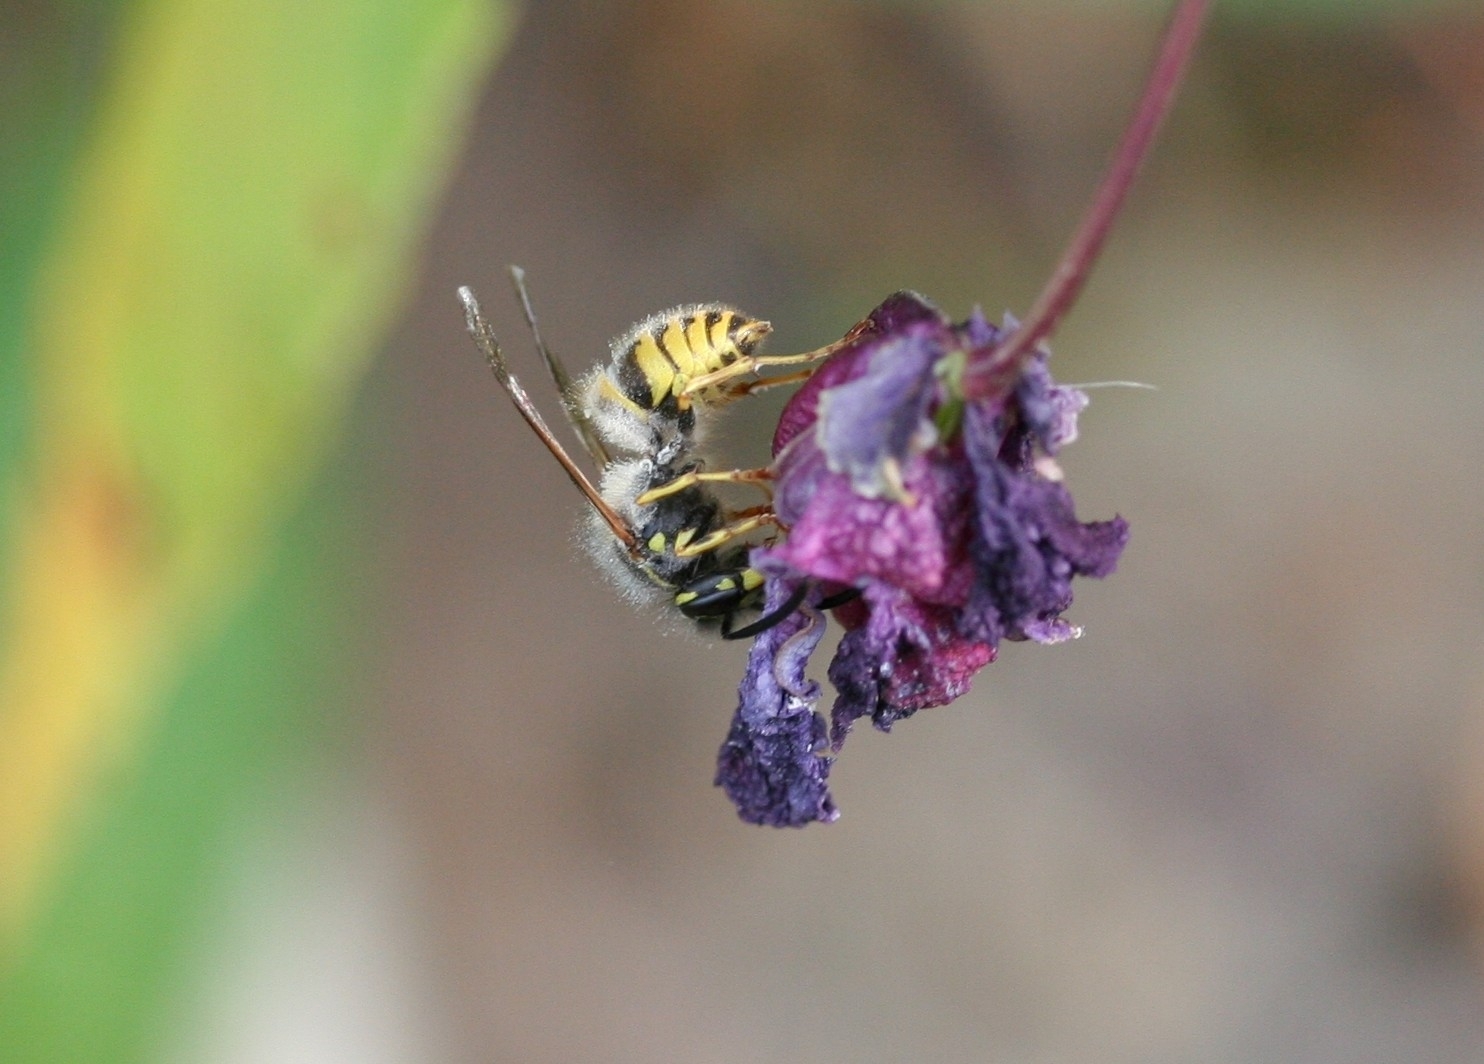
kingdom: Animalia
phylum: Arthropoda
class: Insecta
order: Hymenoptera
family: Vespidae
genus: Vespula
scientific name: Vespula vulgaris
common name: Common wasp
